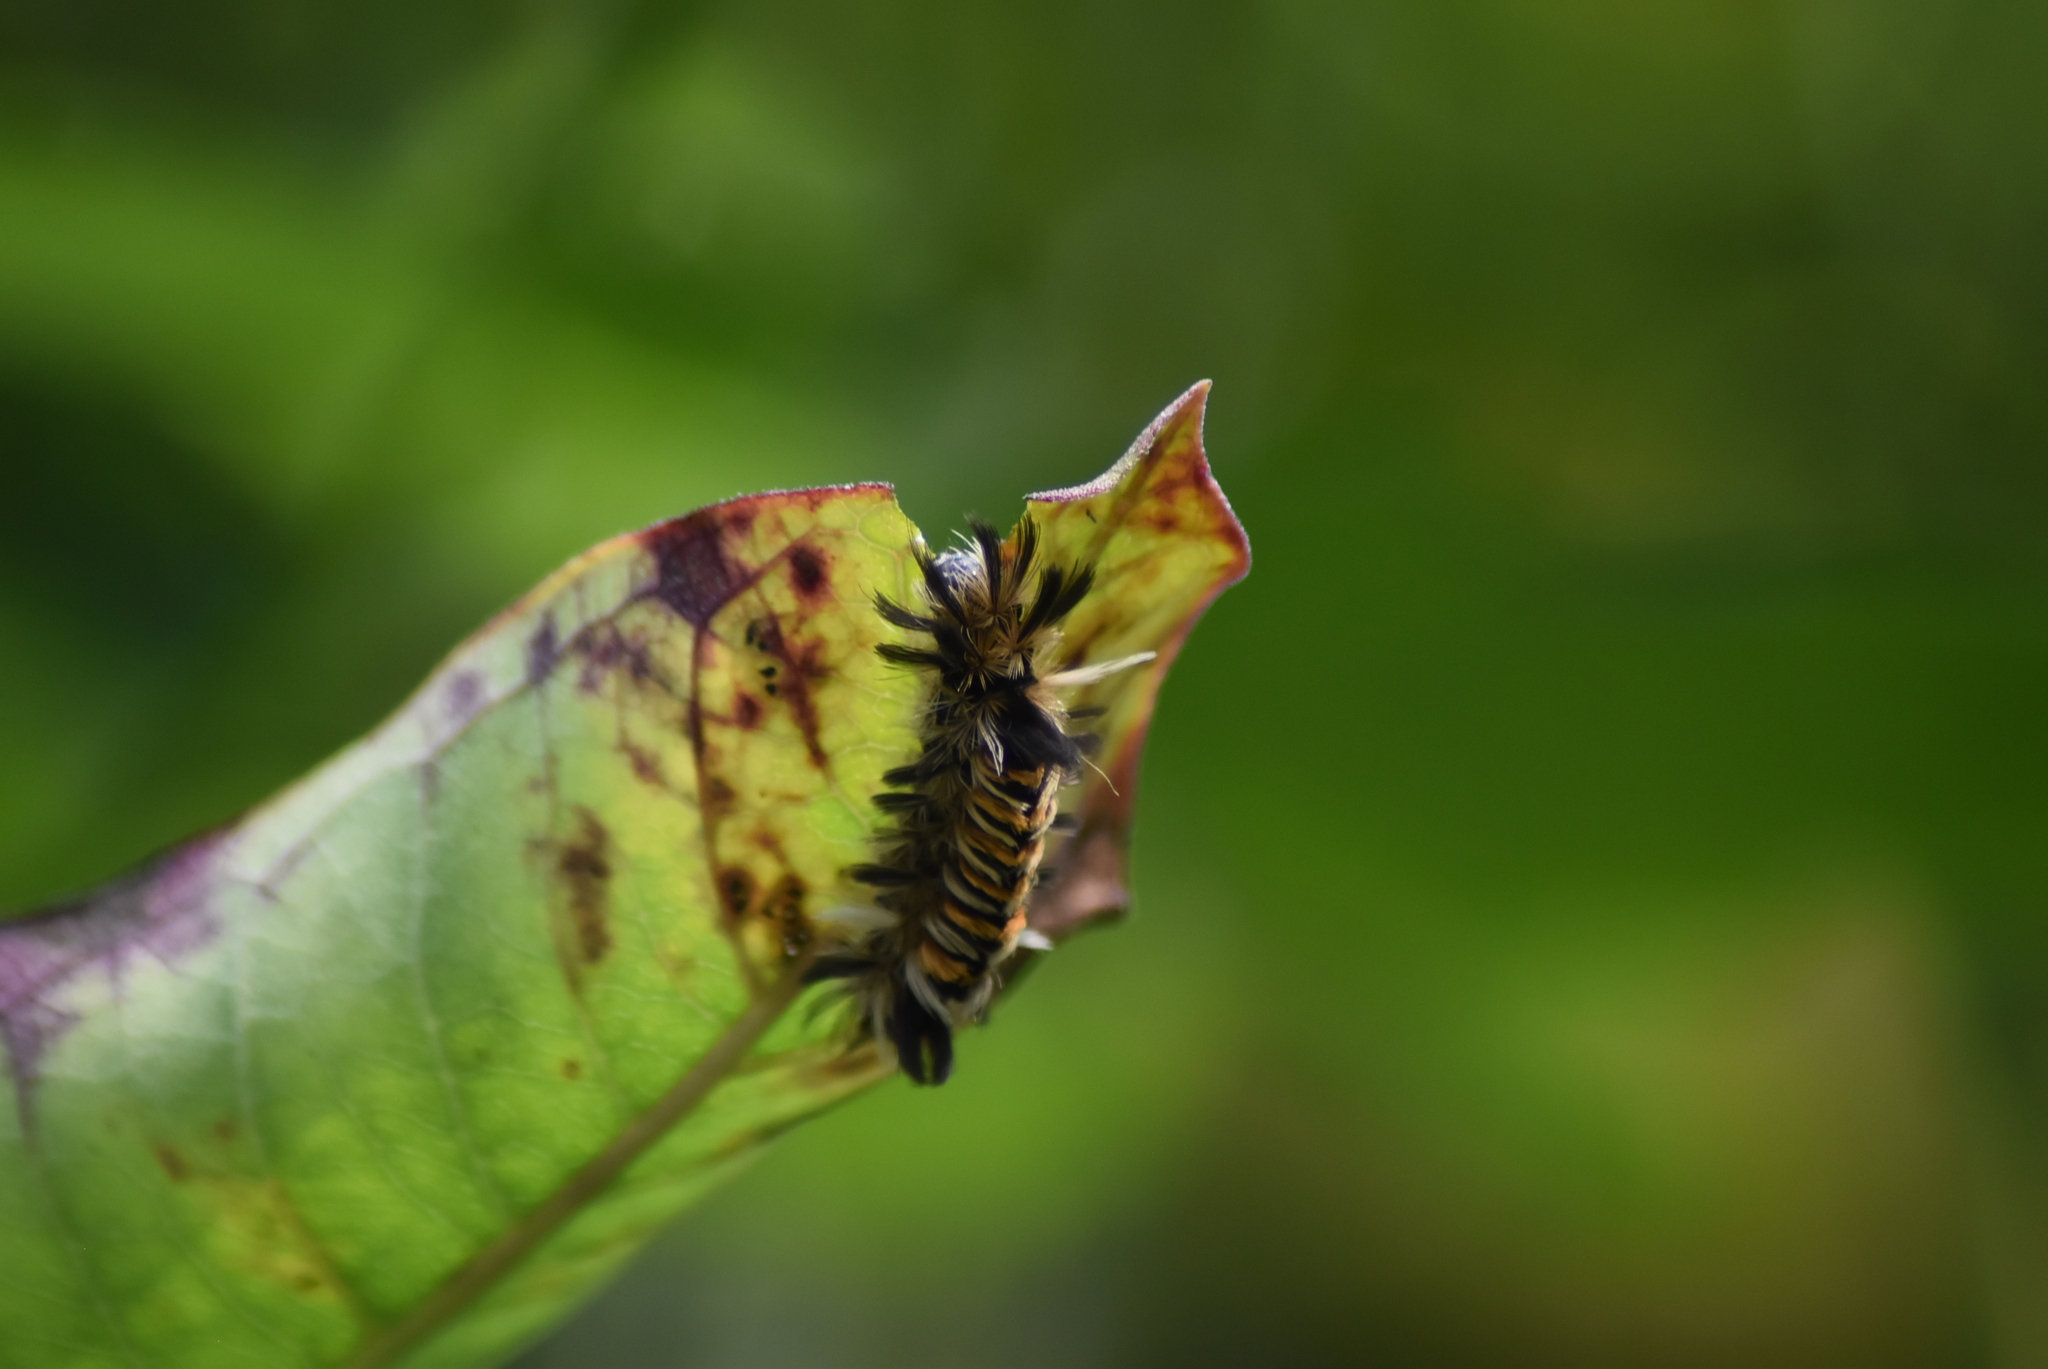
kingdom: Animalia
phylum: Arthropoda
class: Insecta
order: Lepidoptera
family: Erebidae
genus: Euchaetes
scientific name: Euchaetes egle
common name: Milkweed tussock moth
